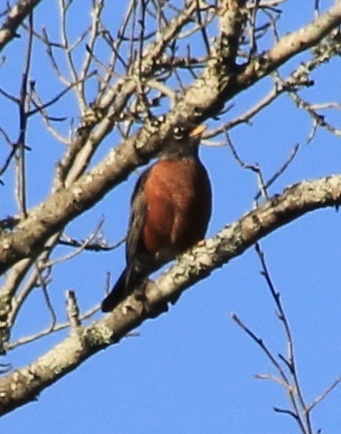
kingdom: Animalia
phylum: Chordata
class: Aves
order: Passeriformes
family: Turdidae
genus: Turdus
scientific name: Turdus migratorius
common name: American robin
